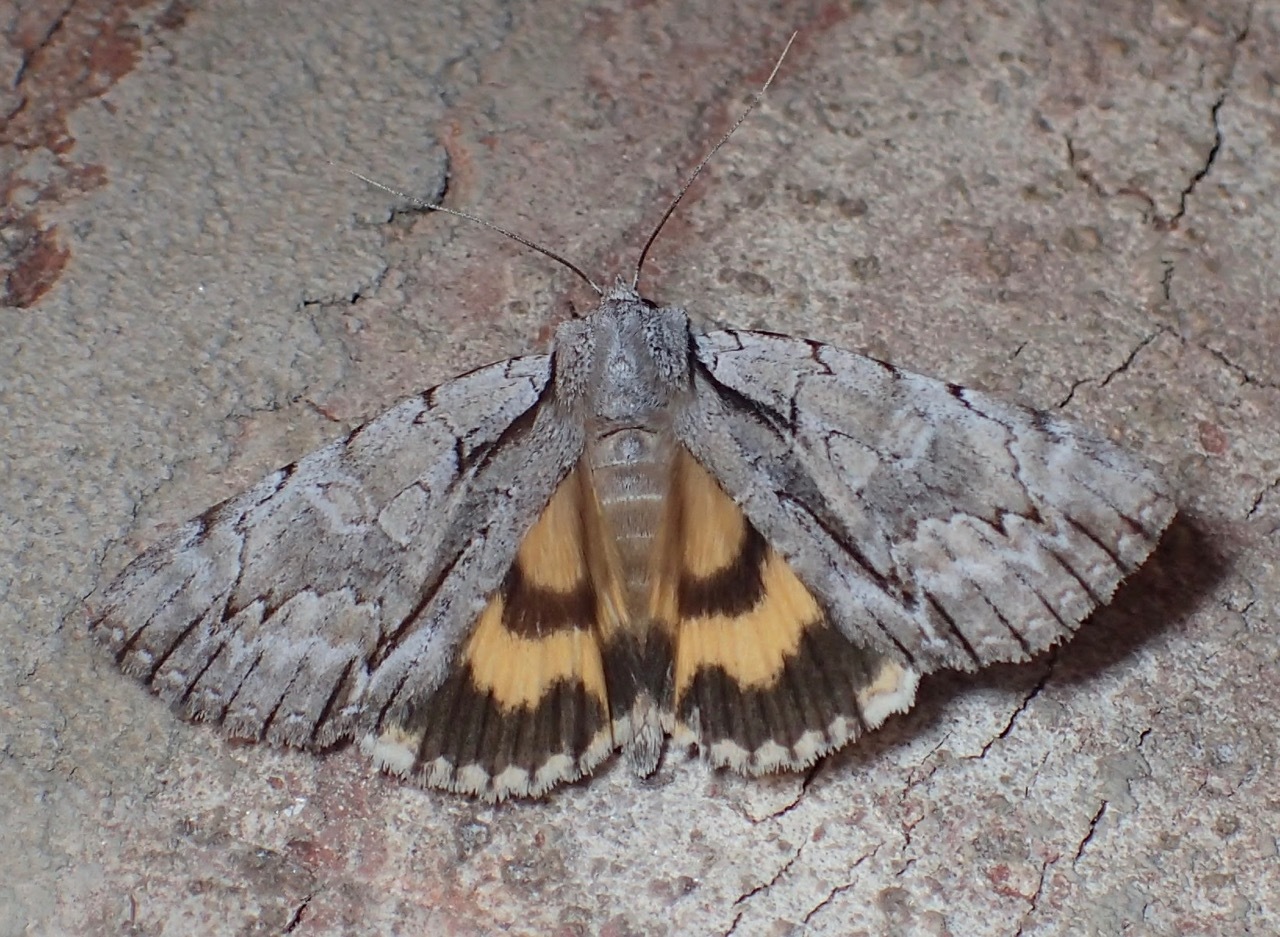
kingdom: Animalia
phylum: Arthropoda
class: Insecta
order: Lepidoptera
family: Erebidae
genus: Catocala
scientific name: Catocala clintonii
